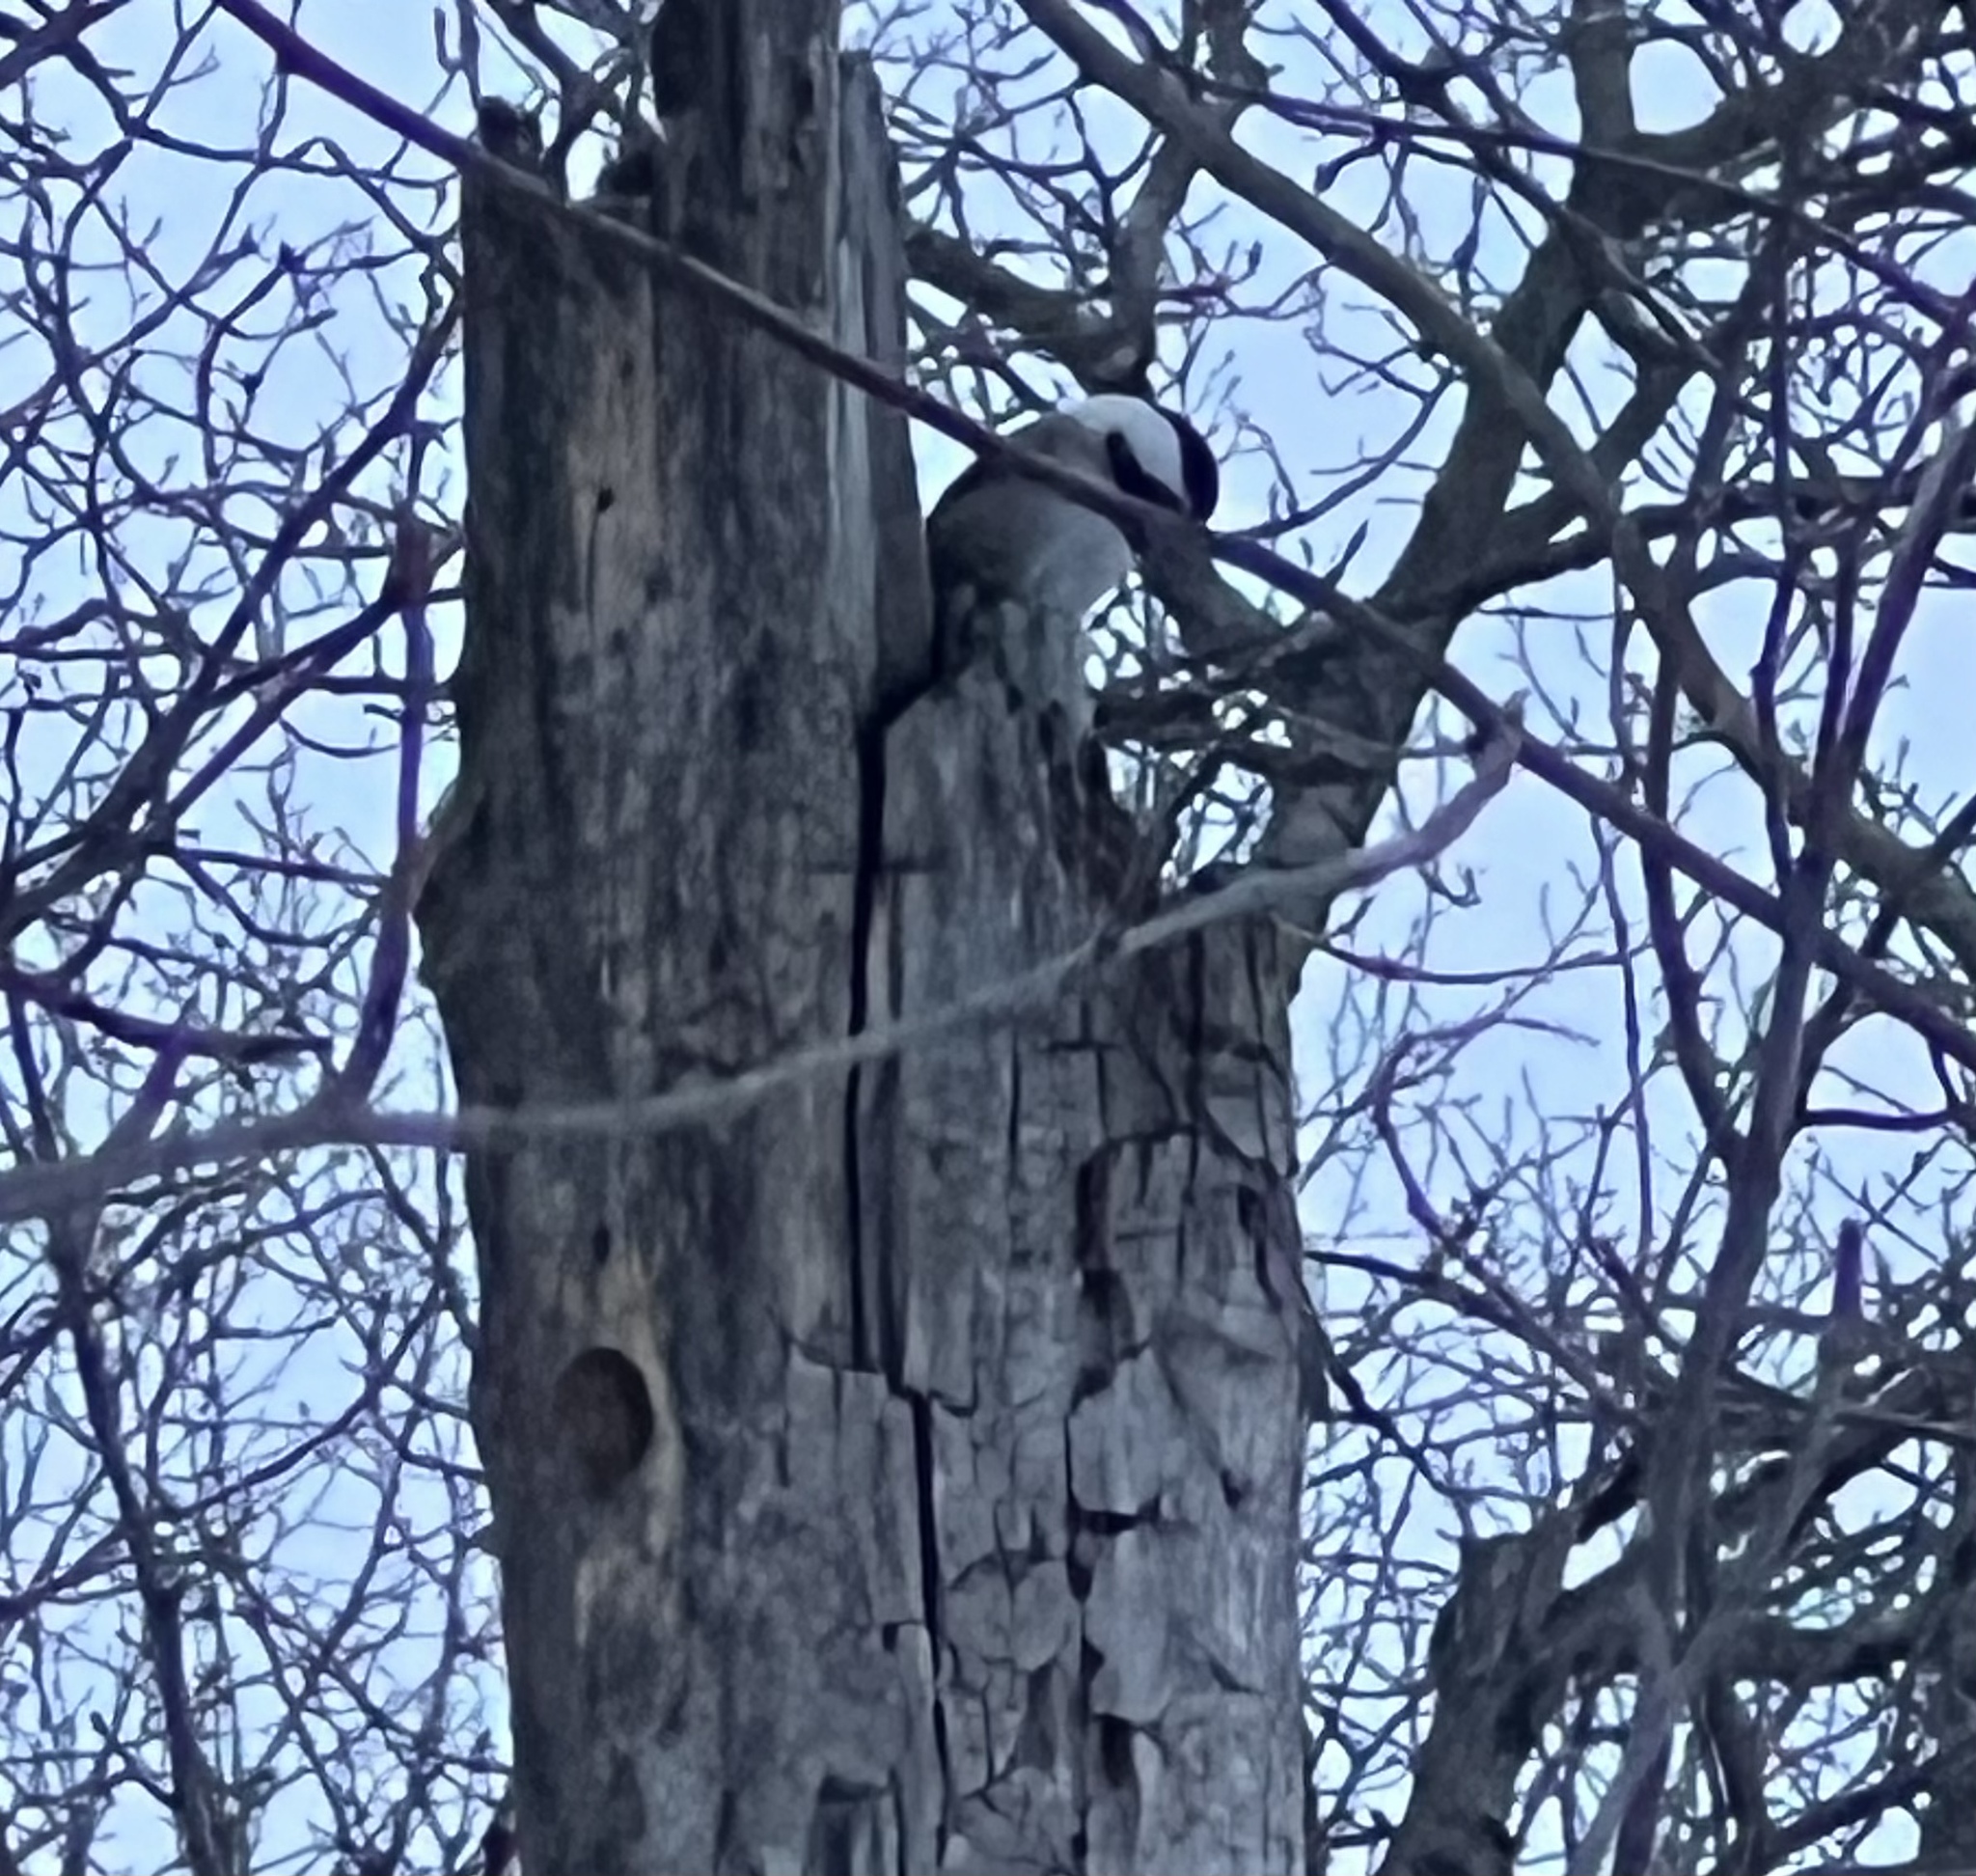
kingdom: Animalia
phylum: Chordata
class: Aves
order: Passeriformes
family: Paridae
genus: Poecile
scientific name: Poecile atricapillus
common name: Black-capped chickadee
